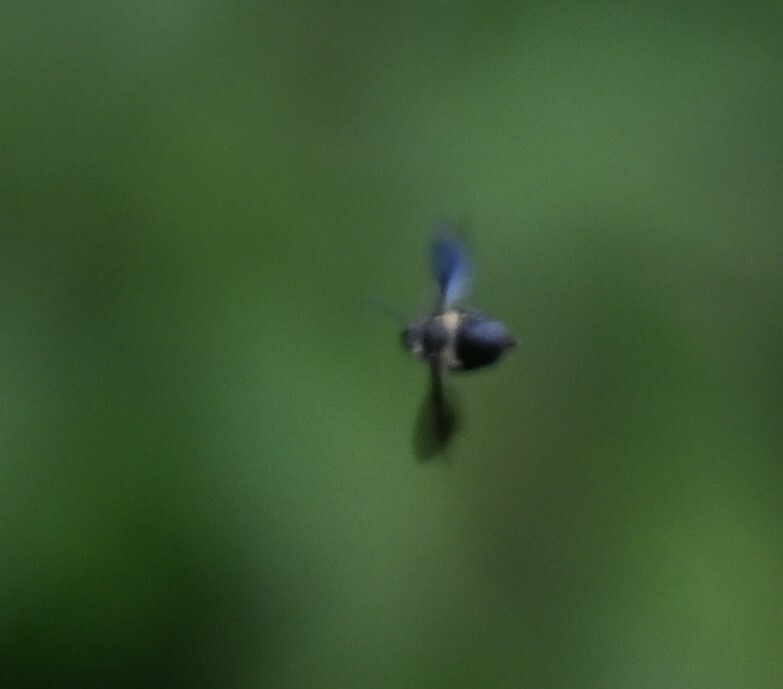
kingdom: Animalia
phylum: Arthropoda
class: Insecta
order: Hymenoptera
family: Megachilidae
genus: Megachile
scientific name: Megachile xylocopoides
